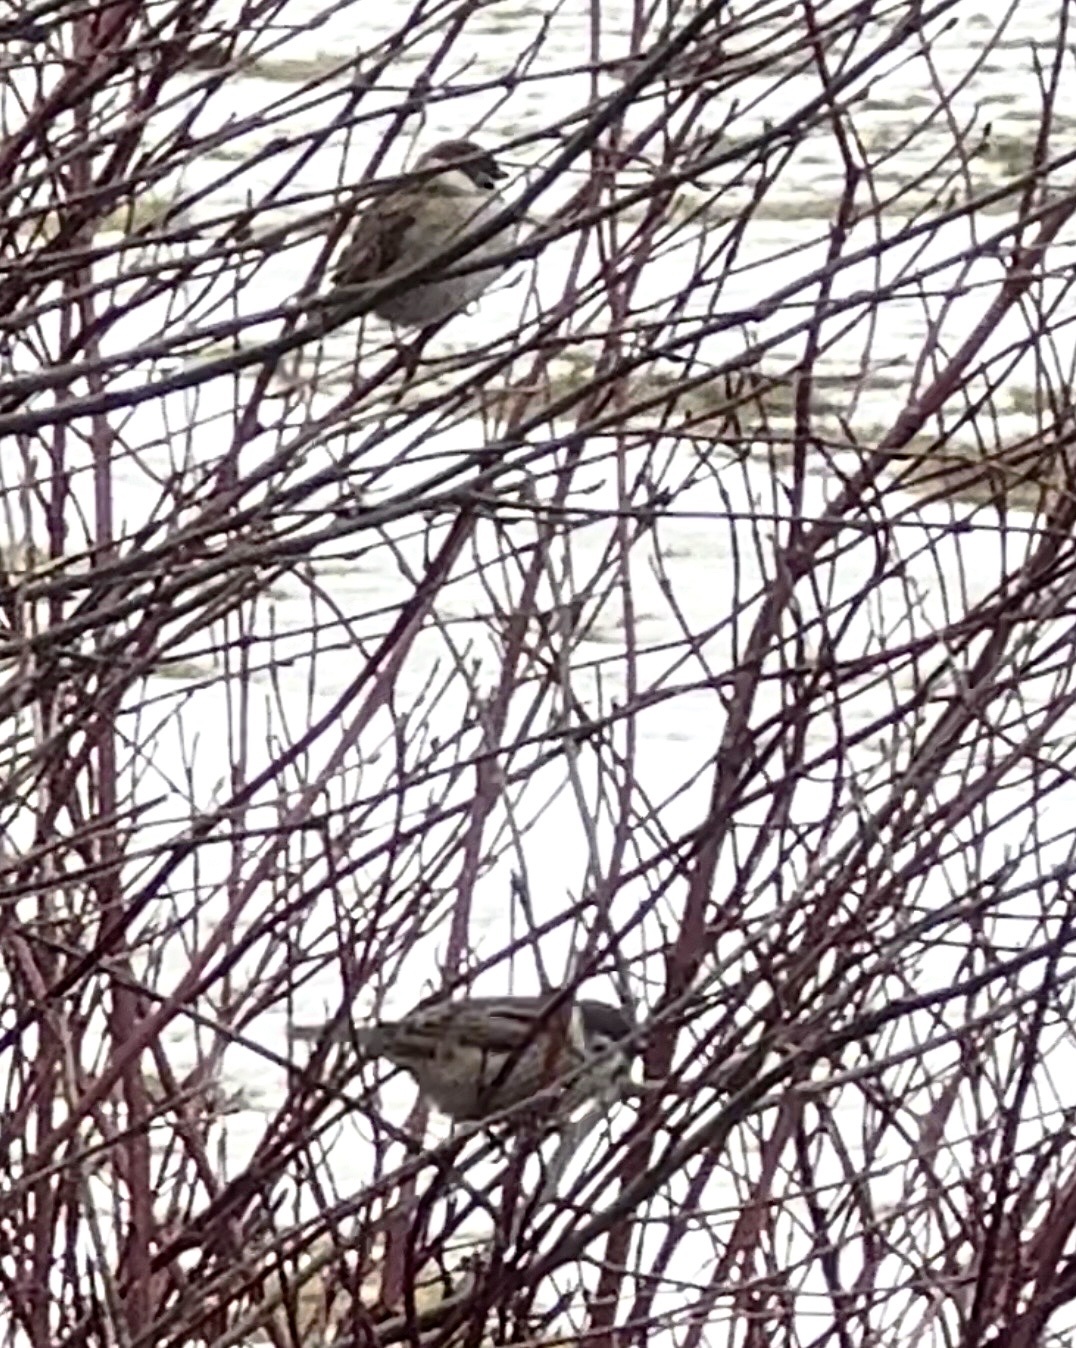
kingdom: Animalia
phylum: Chordata
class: Aves
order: Passeriformes
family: Passeridae
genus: Passer
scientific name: Passer montanus
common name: Eurasian tree sparrow
